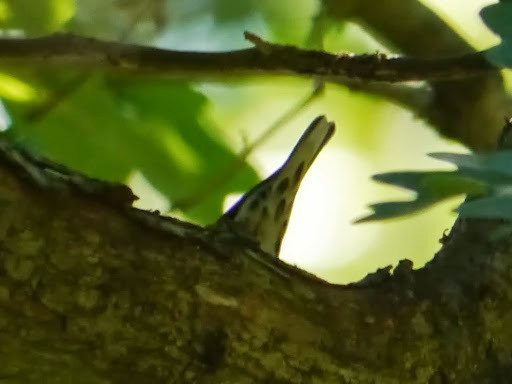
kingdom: Animalia
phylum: Chordata
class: Aves
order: Passeriformes
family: Parulidae
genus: Mniotilta
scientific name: Mniotilta varia
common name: Black-and-white warbler
